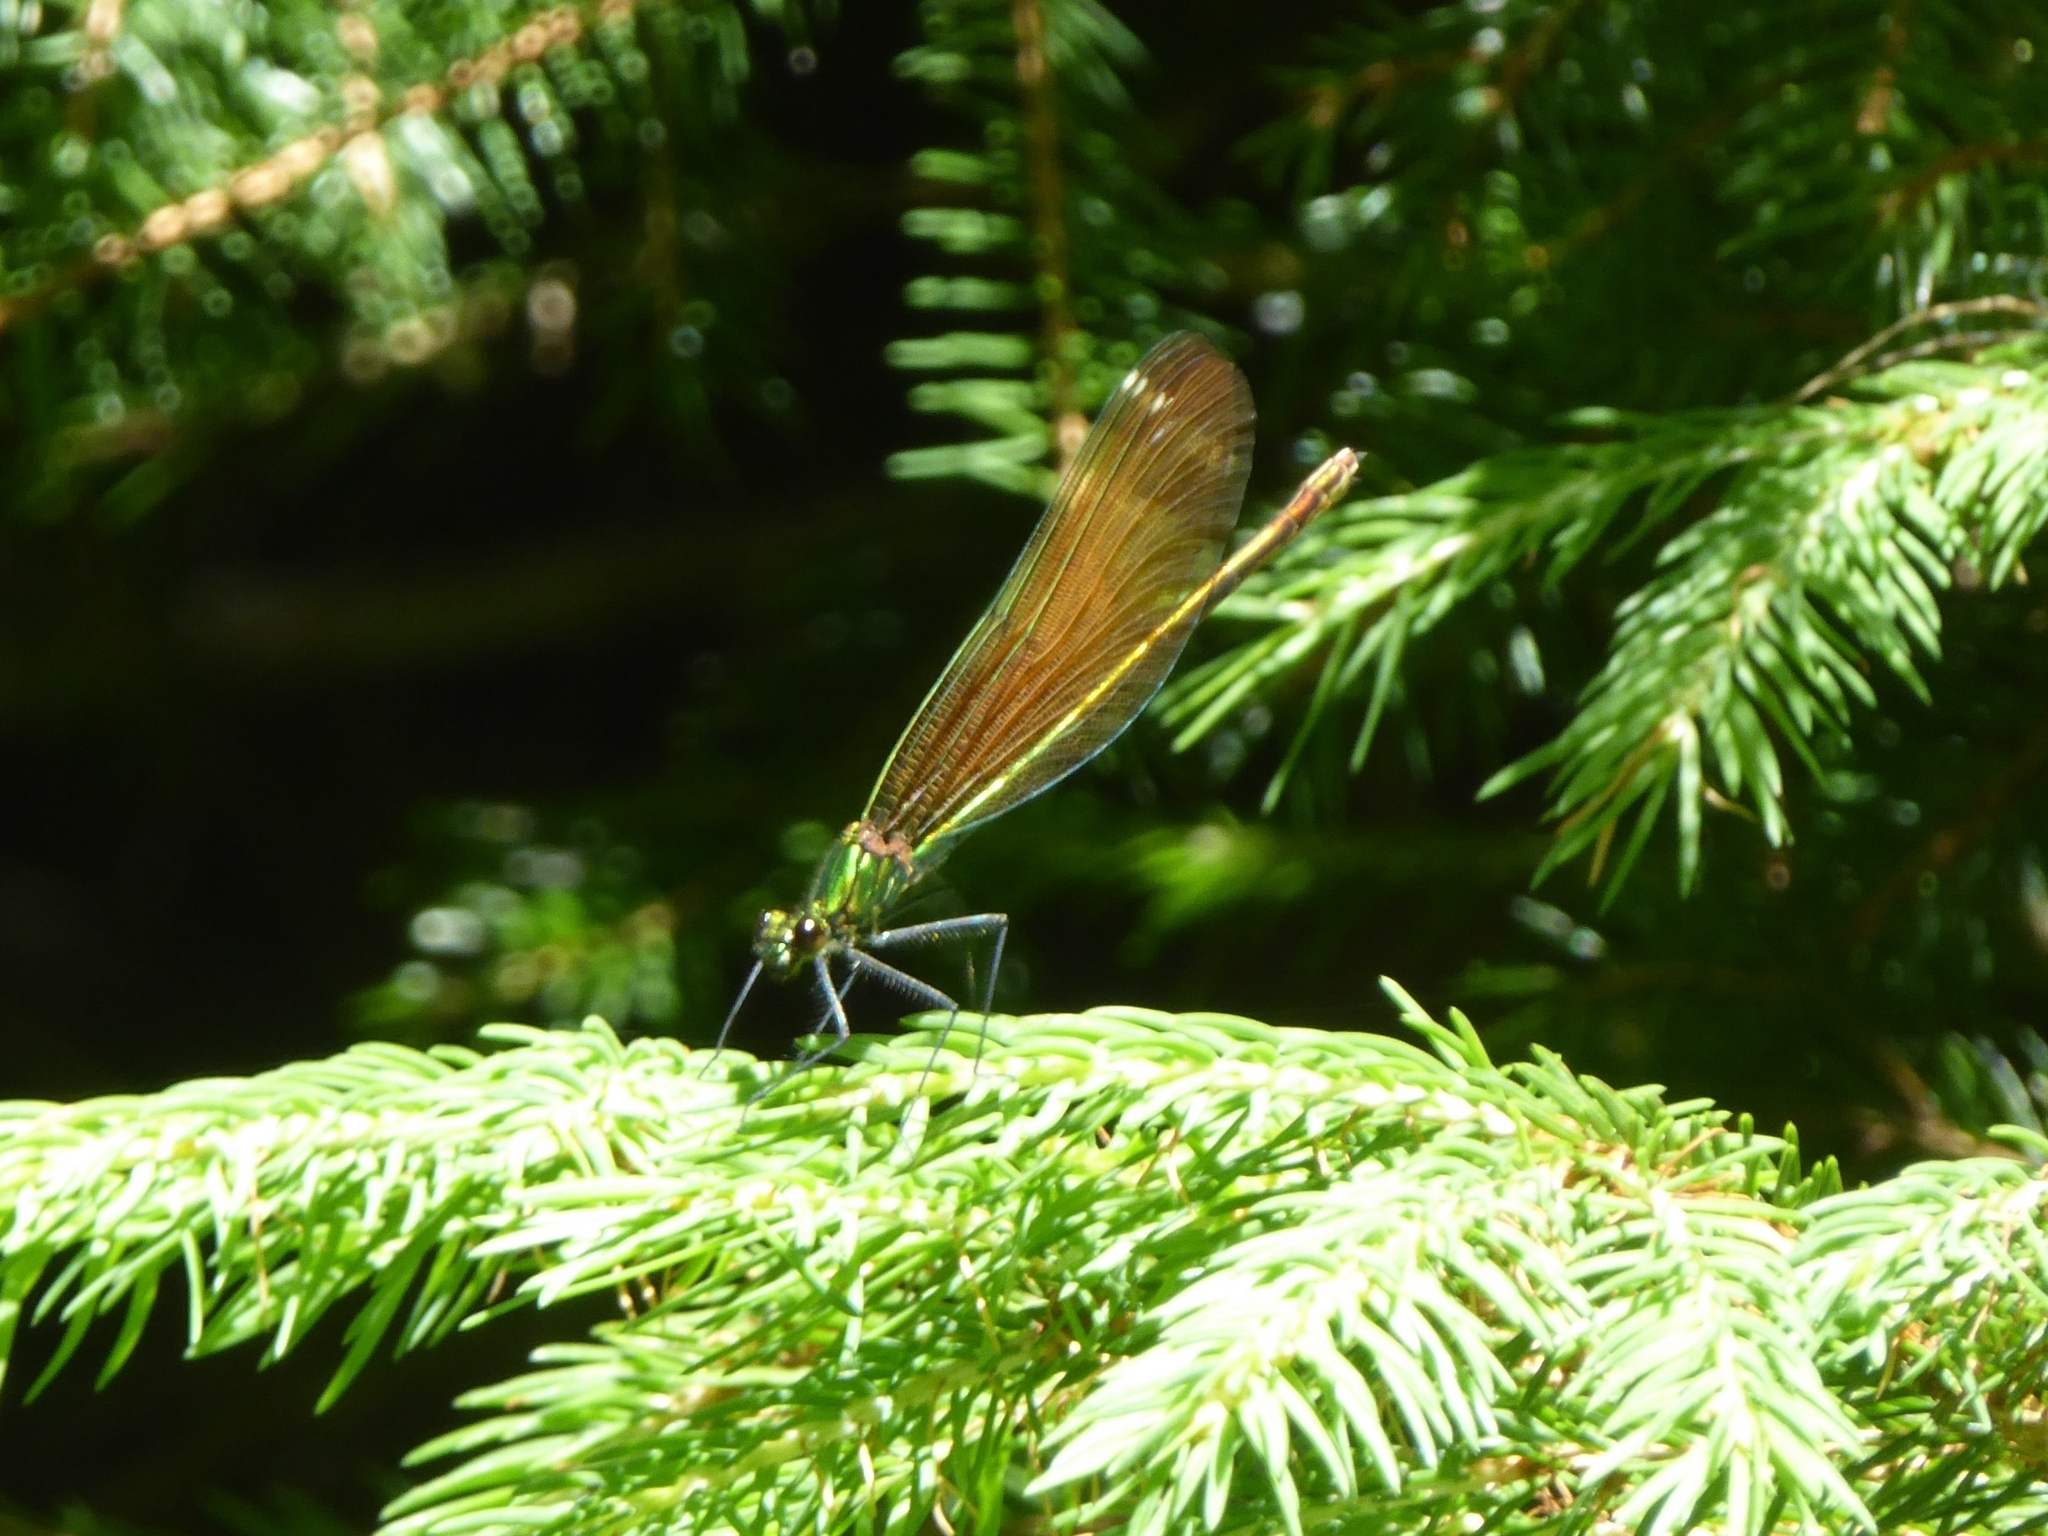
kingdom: Animalia
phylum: Arthropoda
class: Insecta
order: Odonata
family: Calopterygidae
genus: Calopteryx
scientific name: Calopteryx virgo
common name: Beautiful demoiselle
